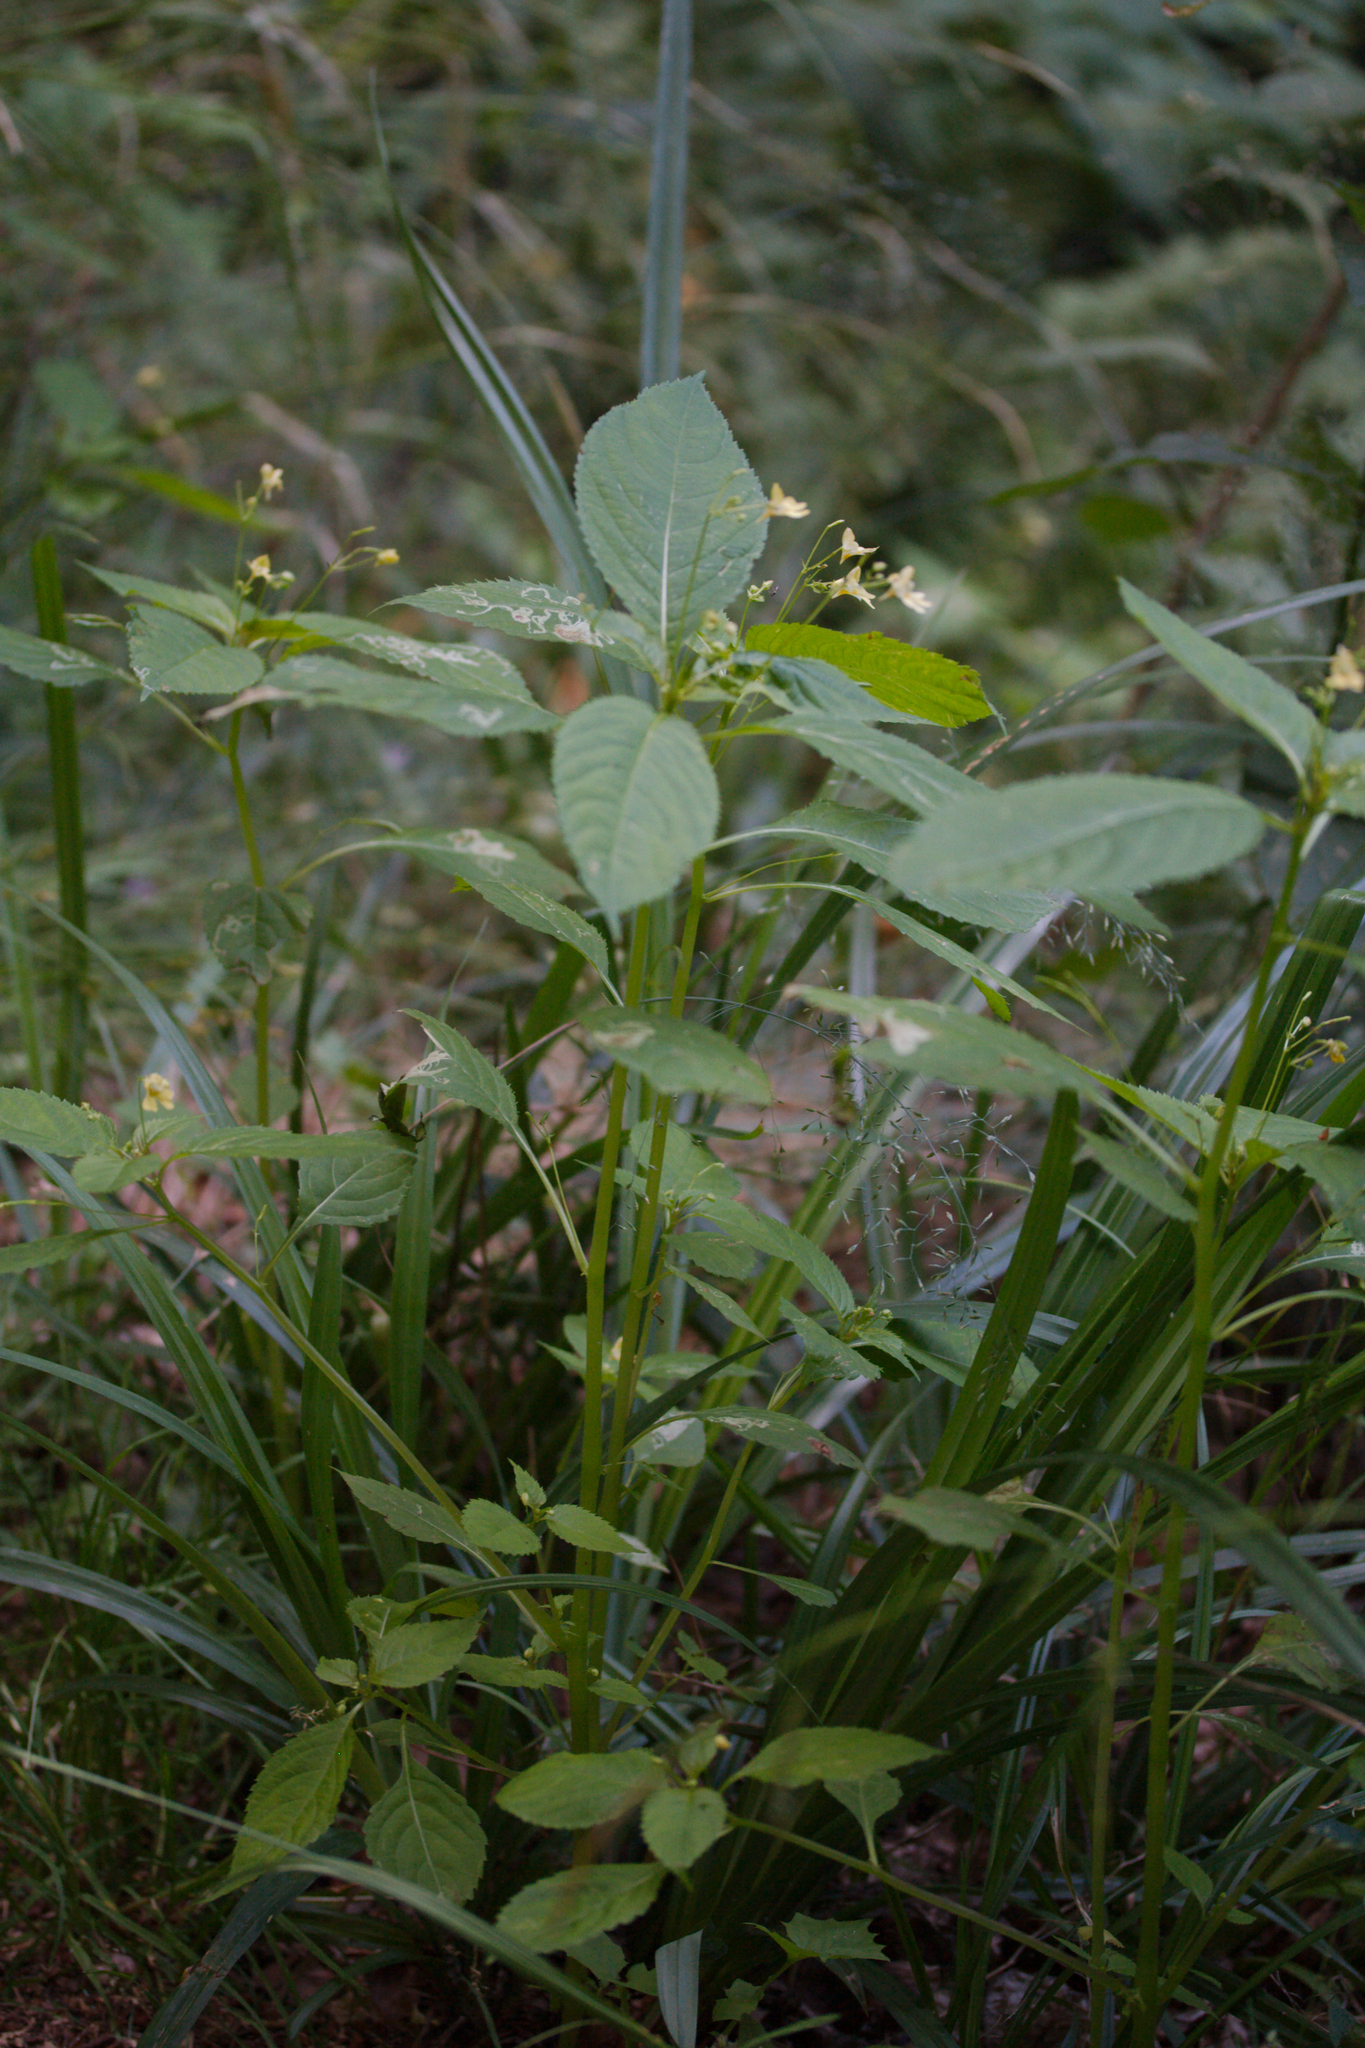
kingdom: Plantae
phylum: Tracheophyta
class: Magnoliopsida
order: Ericales
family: Balsaminaceae
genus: Impatiens
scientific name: Impatiens parviflora
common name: Small balsam
